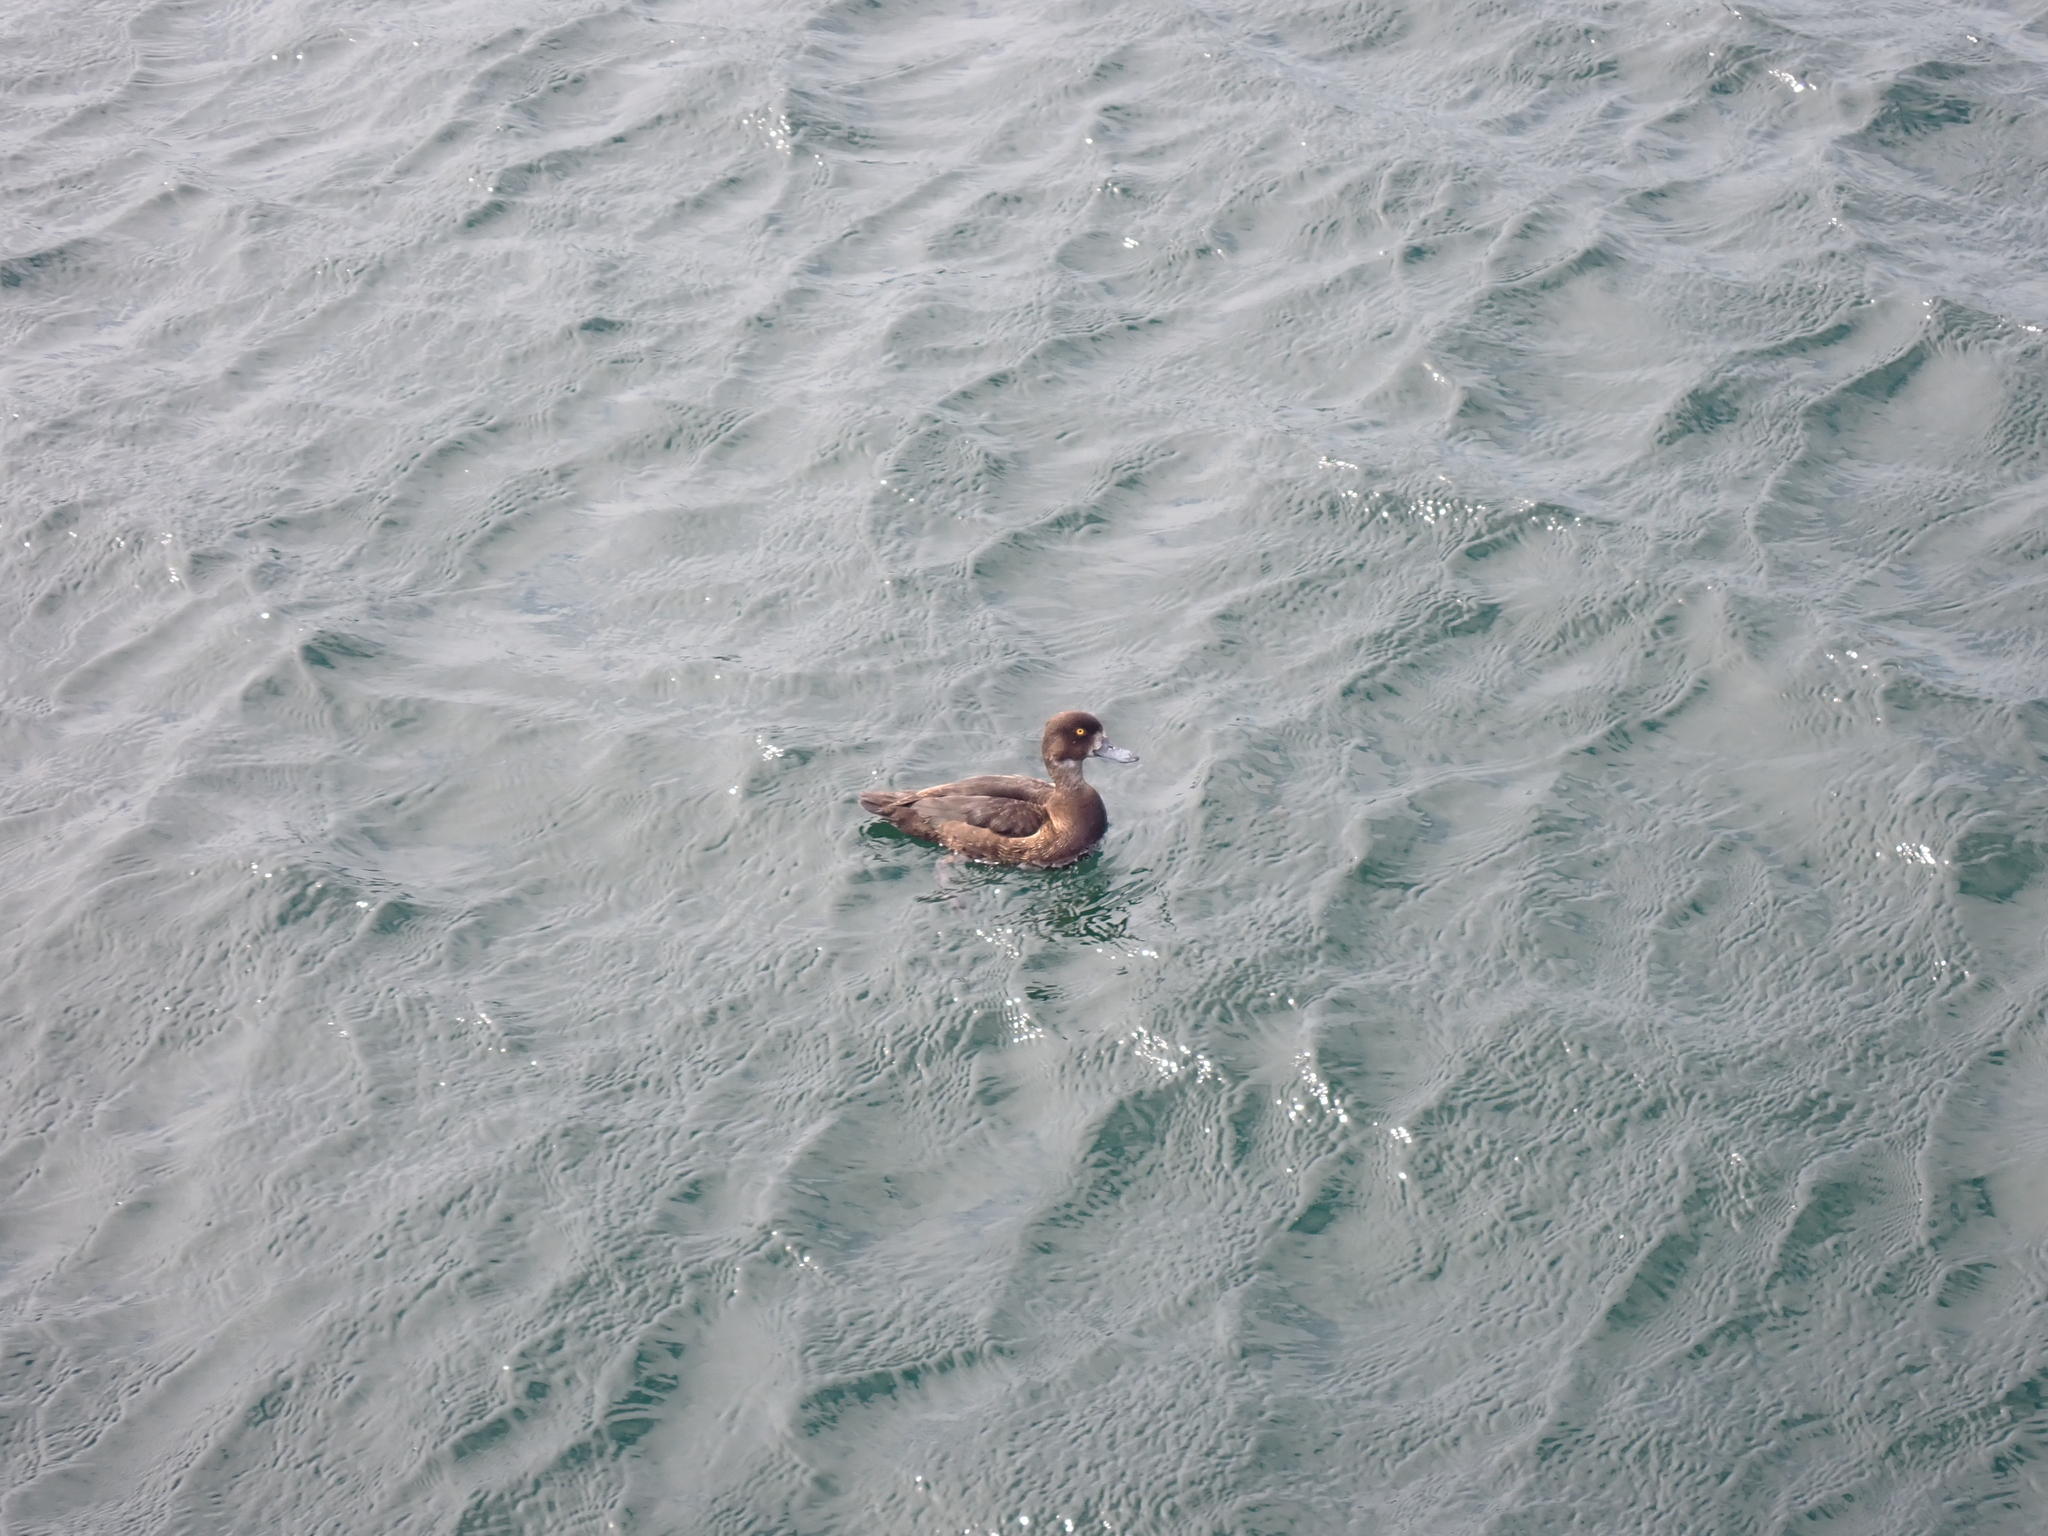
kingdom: Animalia
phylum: Chordata
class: Aves
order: Anseriformes
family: Anatidae
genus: Aythya
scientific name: Aythya fuligula
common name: Tufted duck
